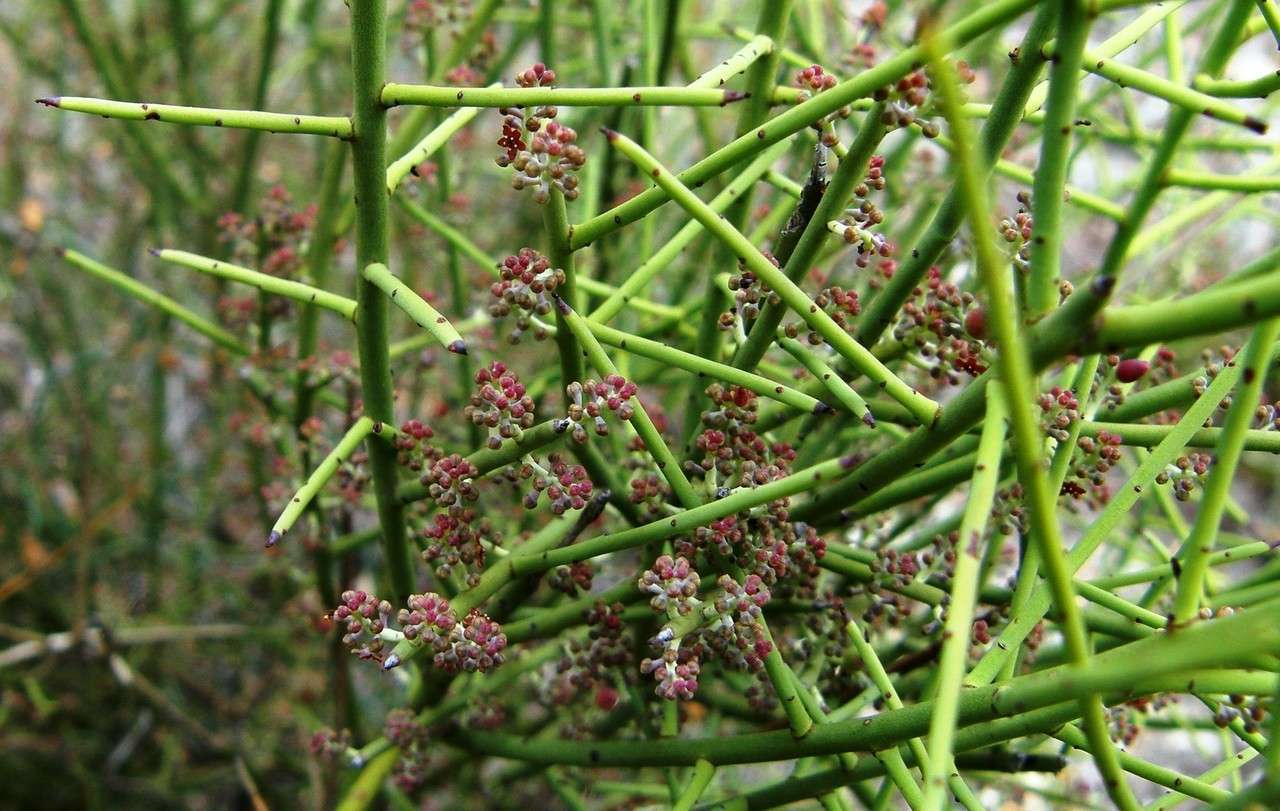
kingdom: Plantae
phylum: Tracheophyta
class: Magnoliopsida
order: Santalales
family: Amphorogynaceae
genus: Leptomeria
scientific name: Leptomeria aphylla
